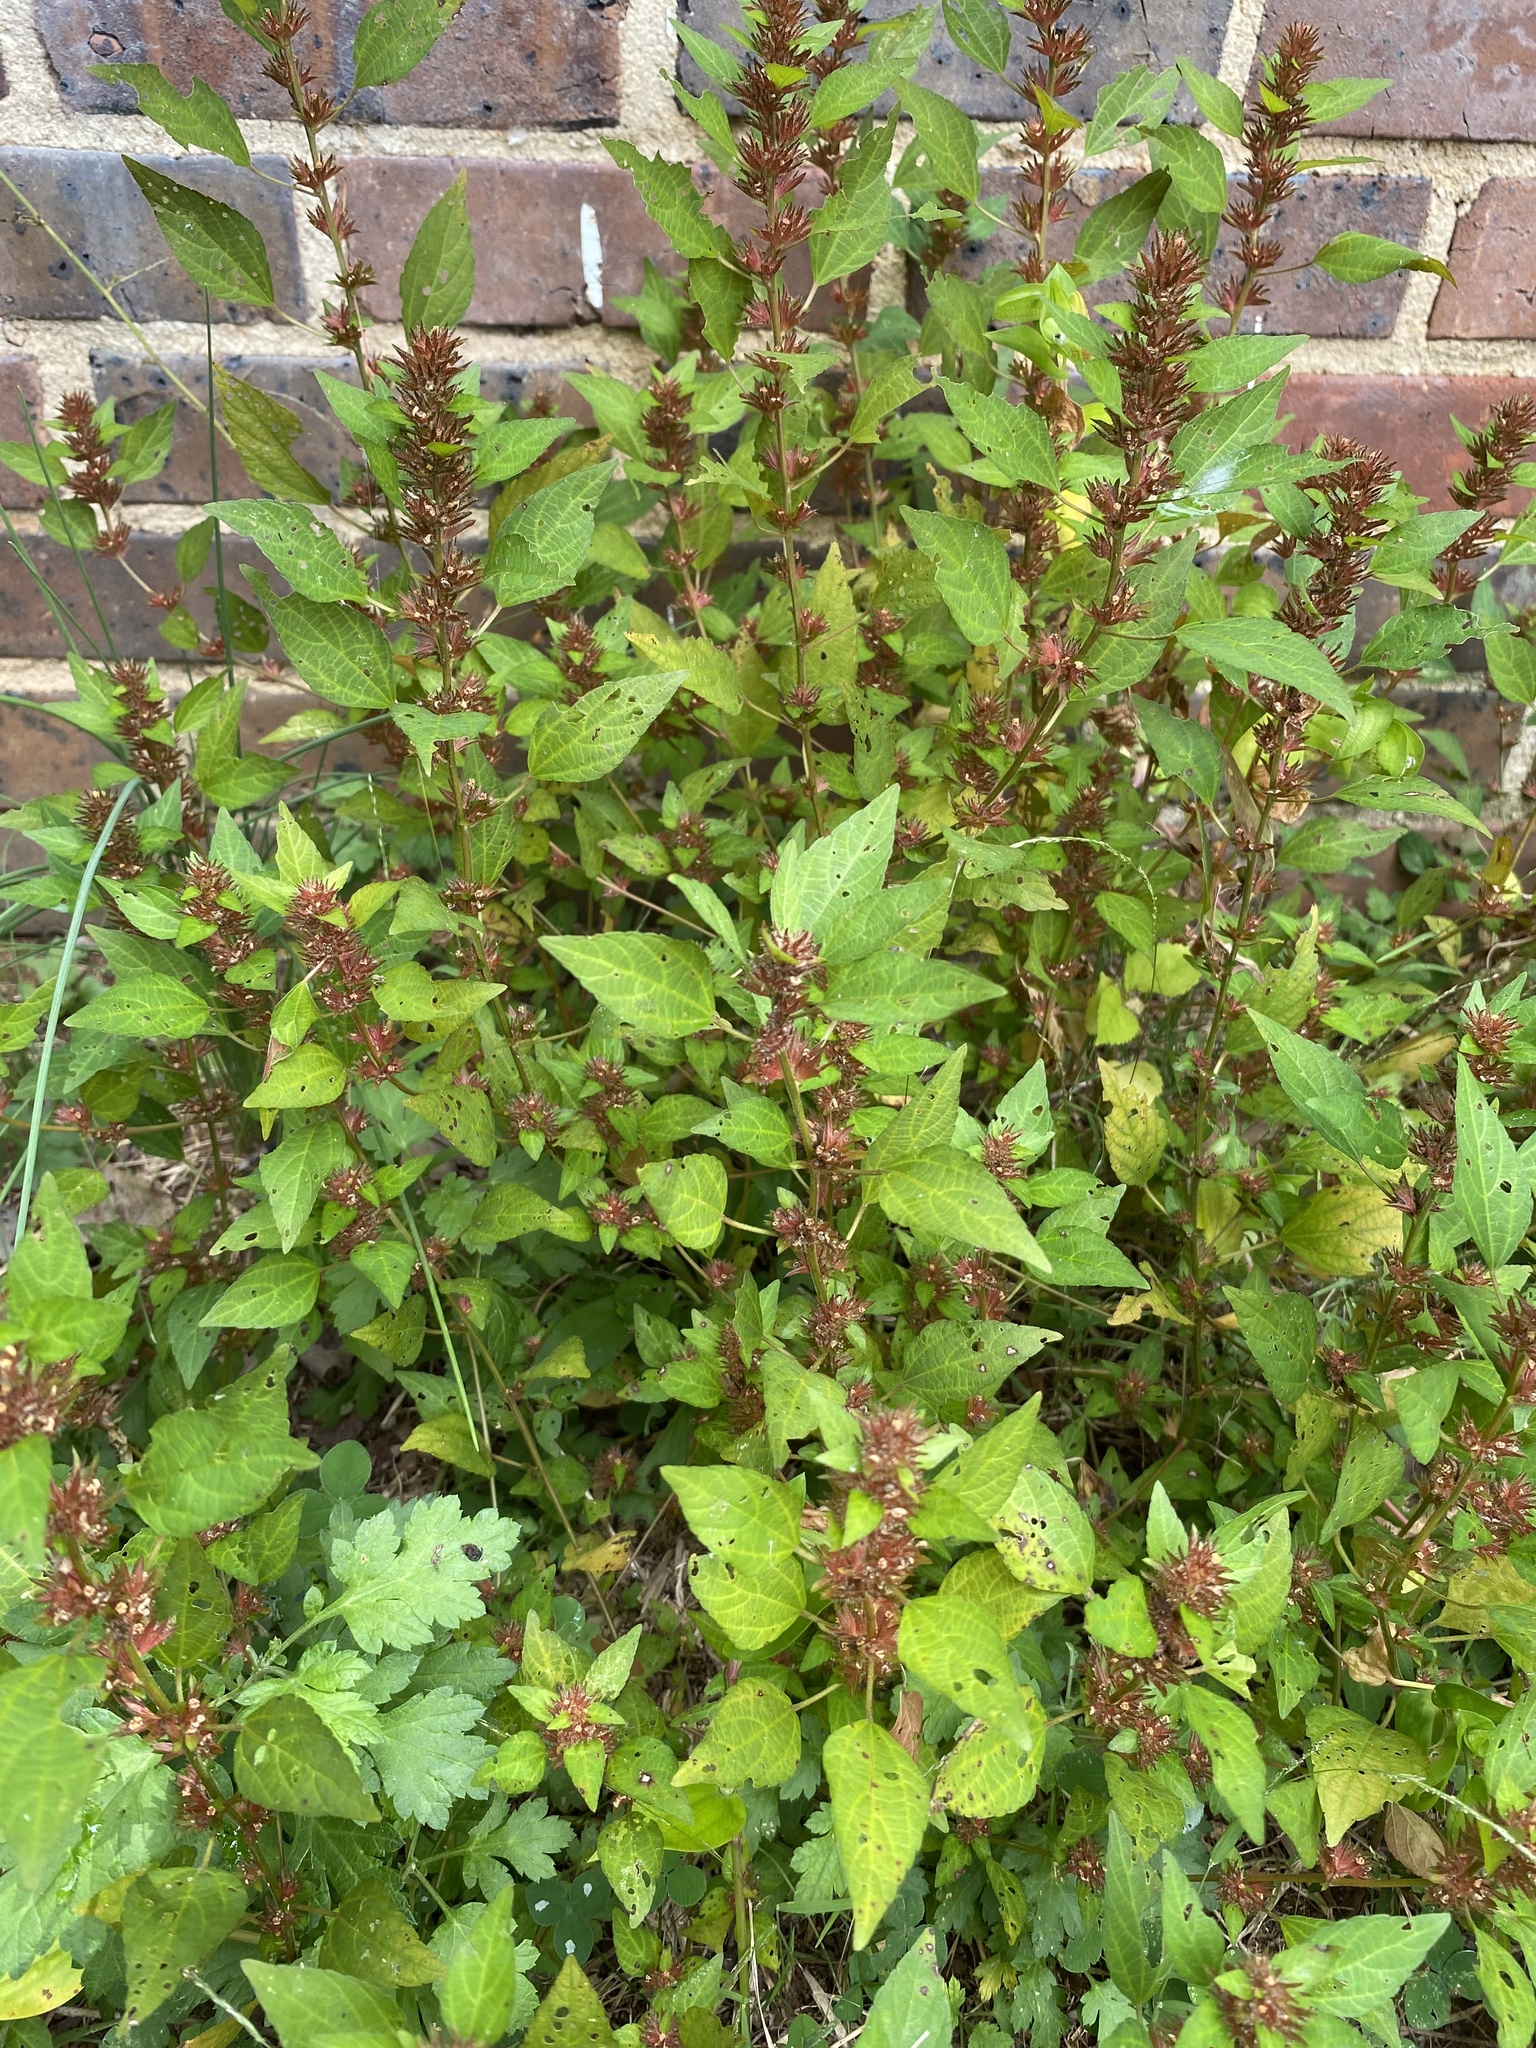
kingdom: Plantae
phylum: Tracheophyta
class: Magnoliopsida
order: Malpighiales
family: Euphorbiaceae
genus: Acalypha
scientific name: Acalypha rhomboidea
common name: Rhombic copperleaf
